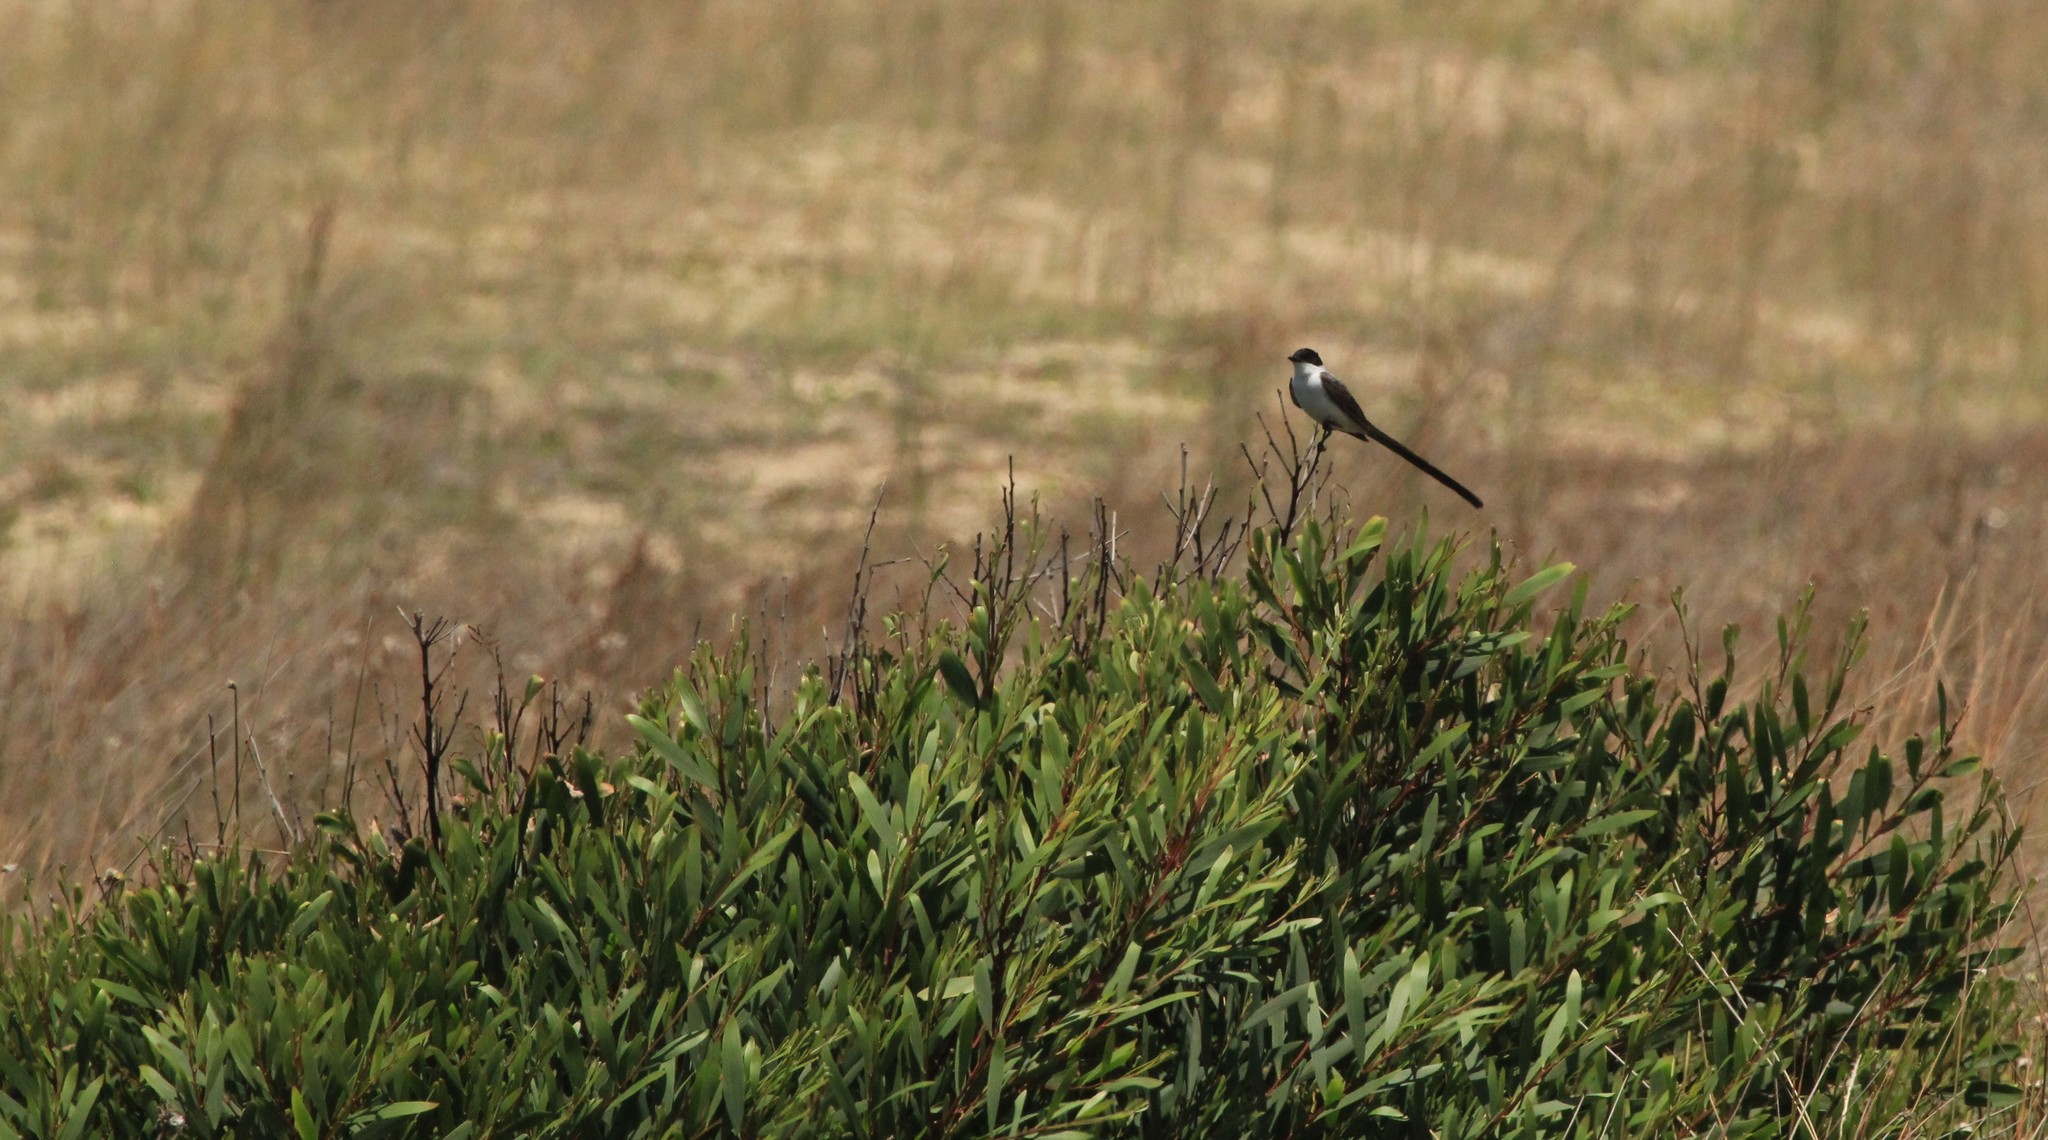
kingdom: Animalia
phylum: Chordata
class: Aves
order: Passeriformes
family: Tyrannidae
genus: Tyrannus
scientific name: Tyrannus savana
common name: Fork-tailed flycatcher
